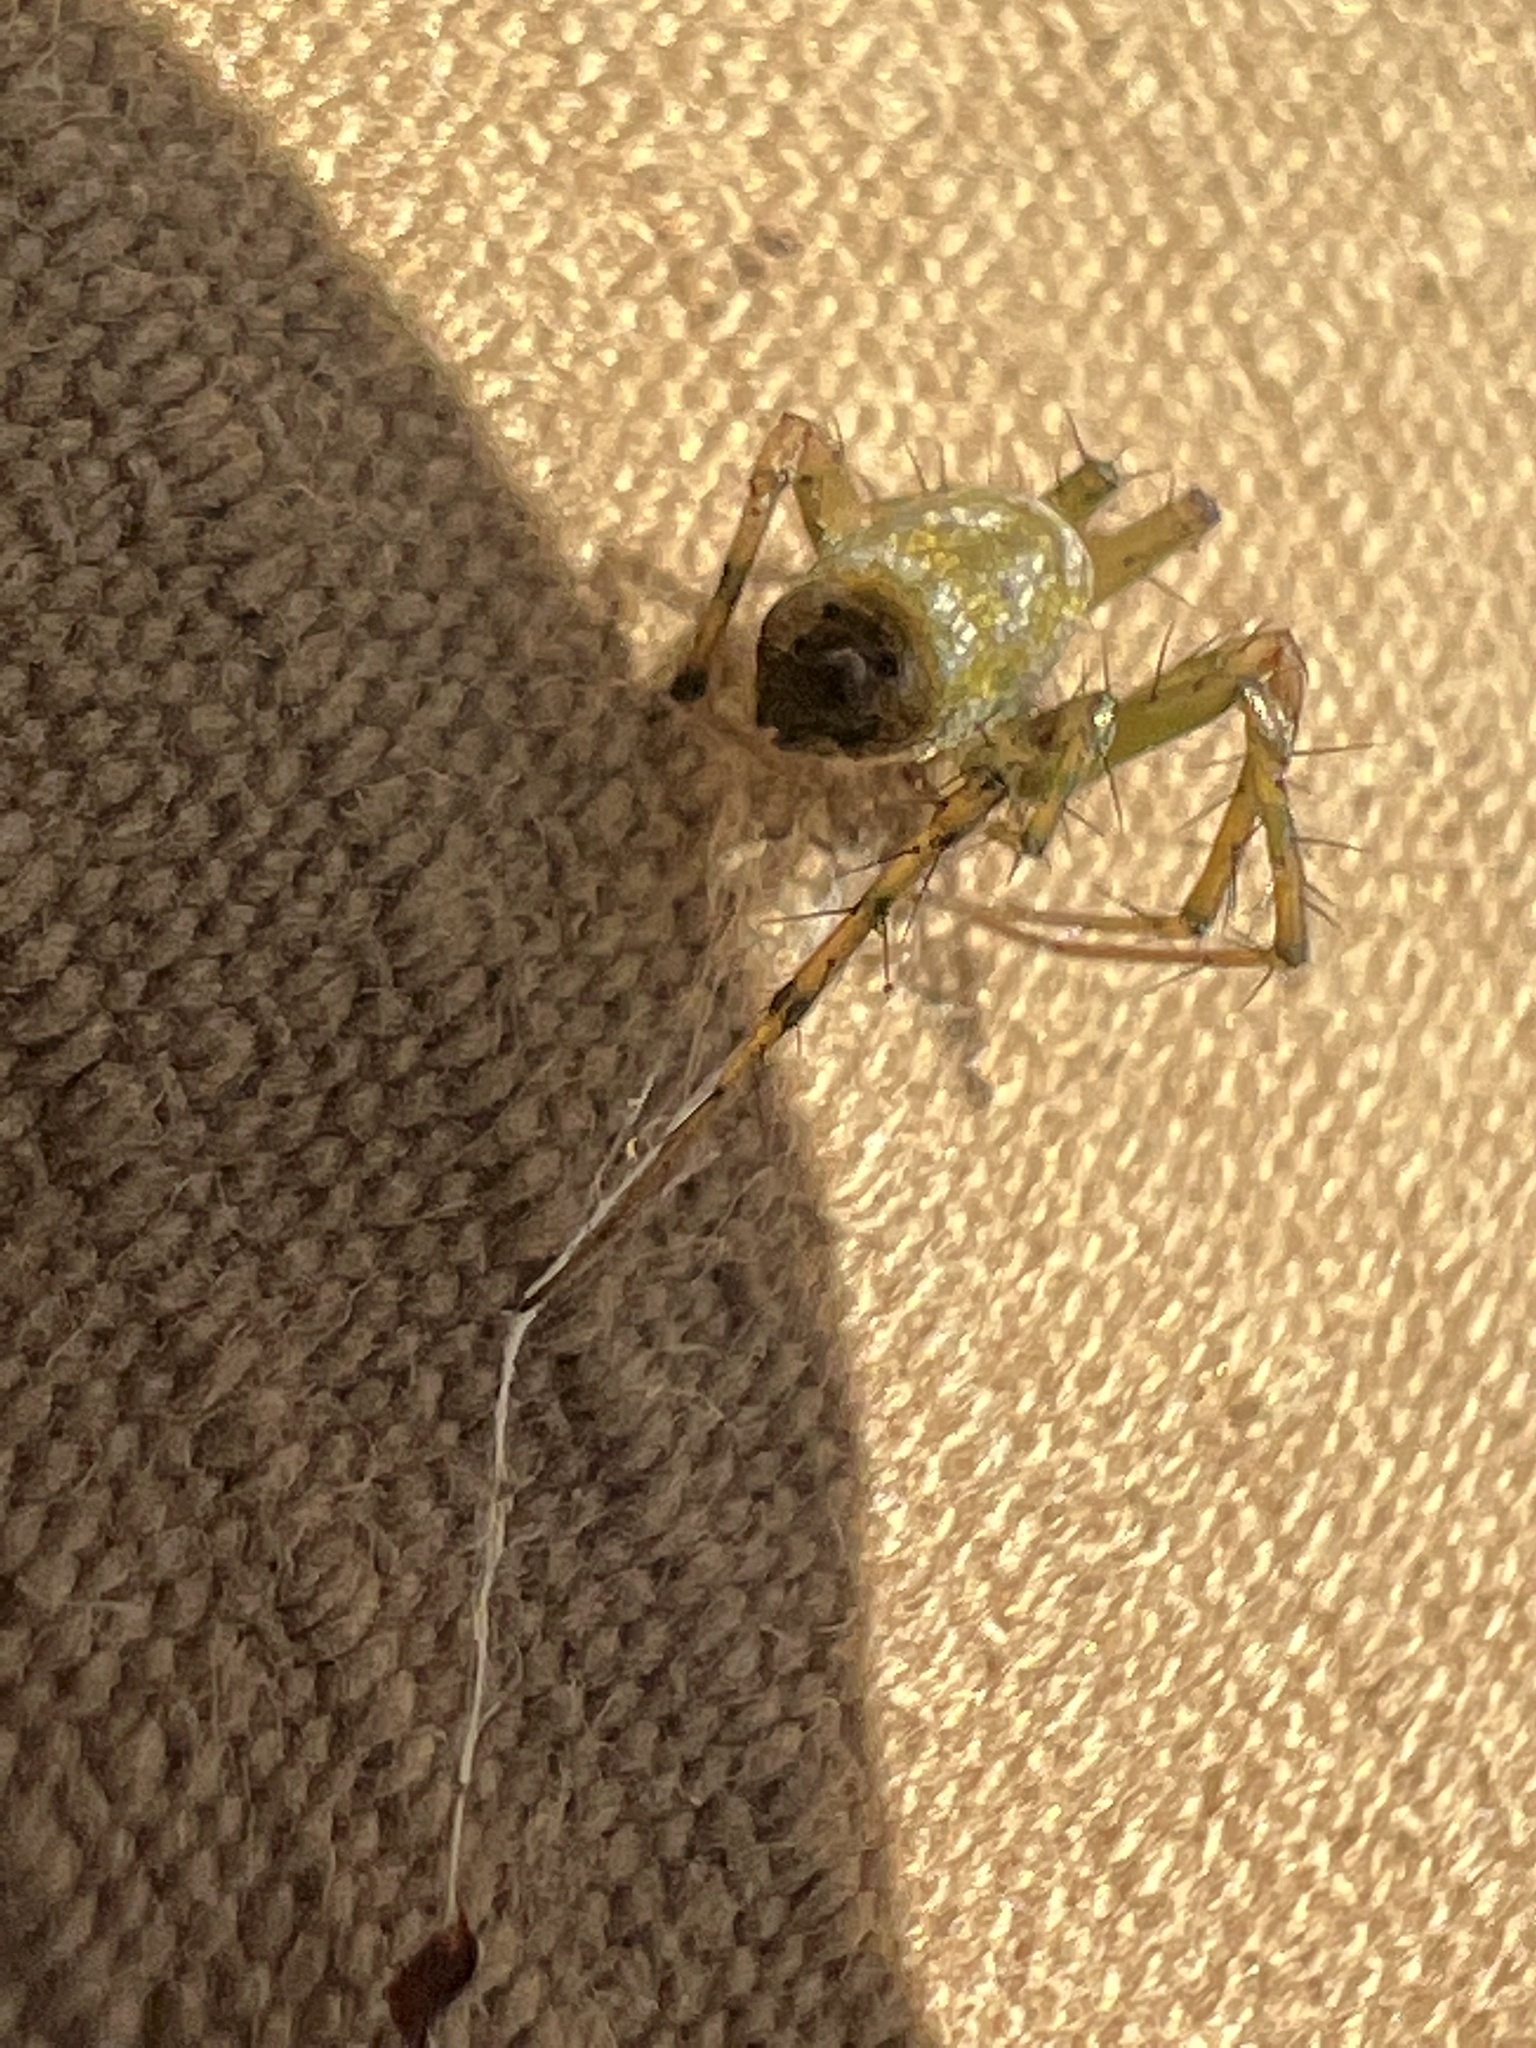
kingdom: Animalia
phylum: Arthropoda
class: Arachnida
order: Araneae
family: Araneidae
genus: Mangora
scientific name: Mangora maculata
